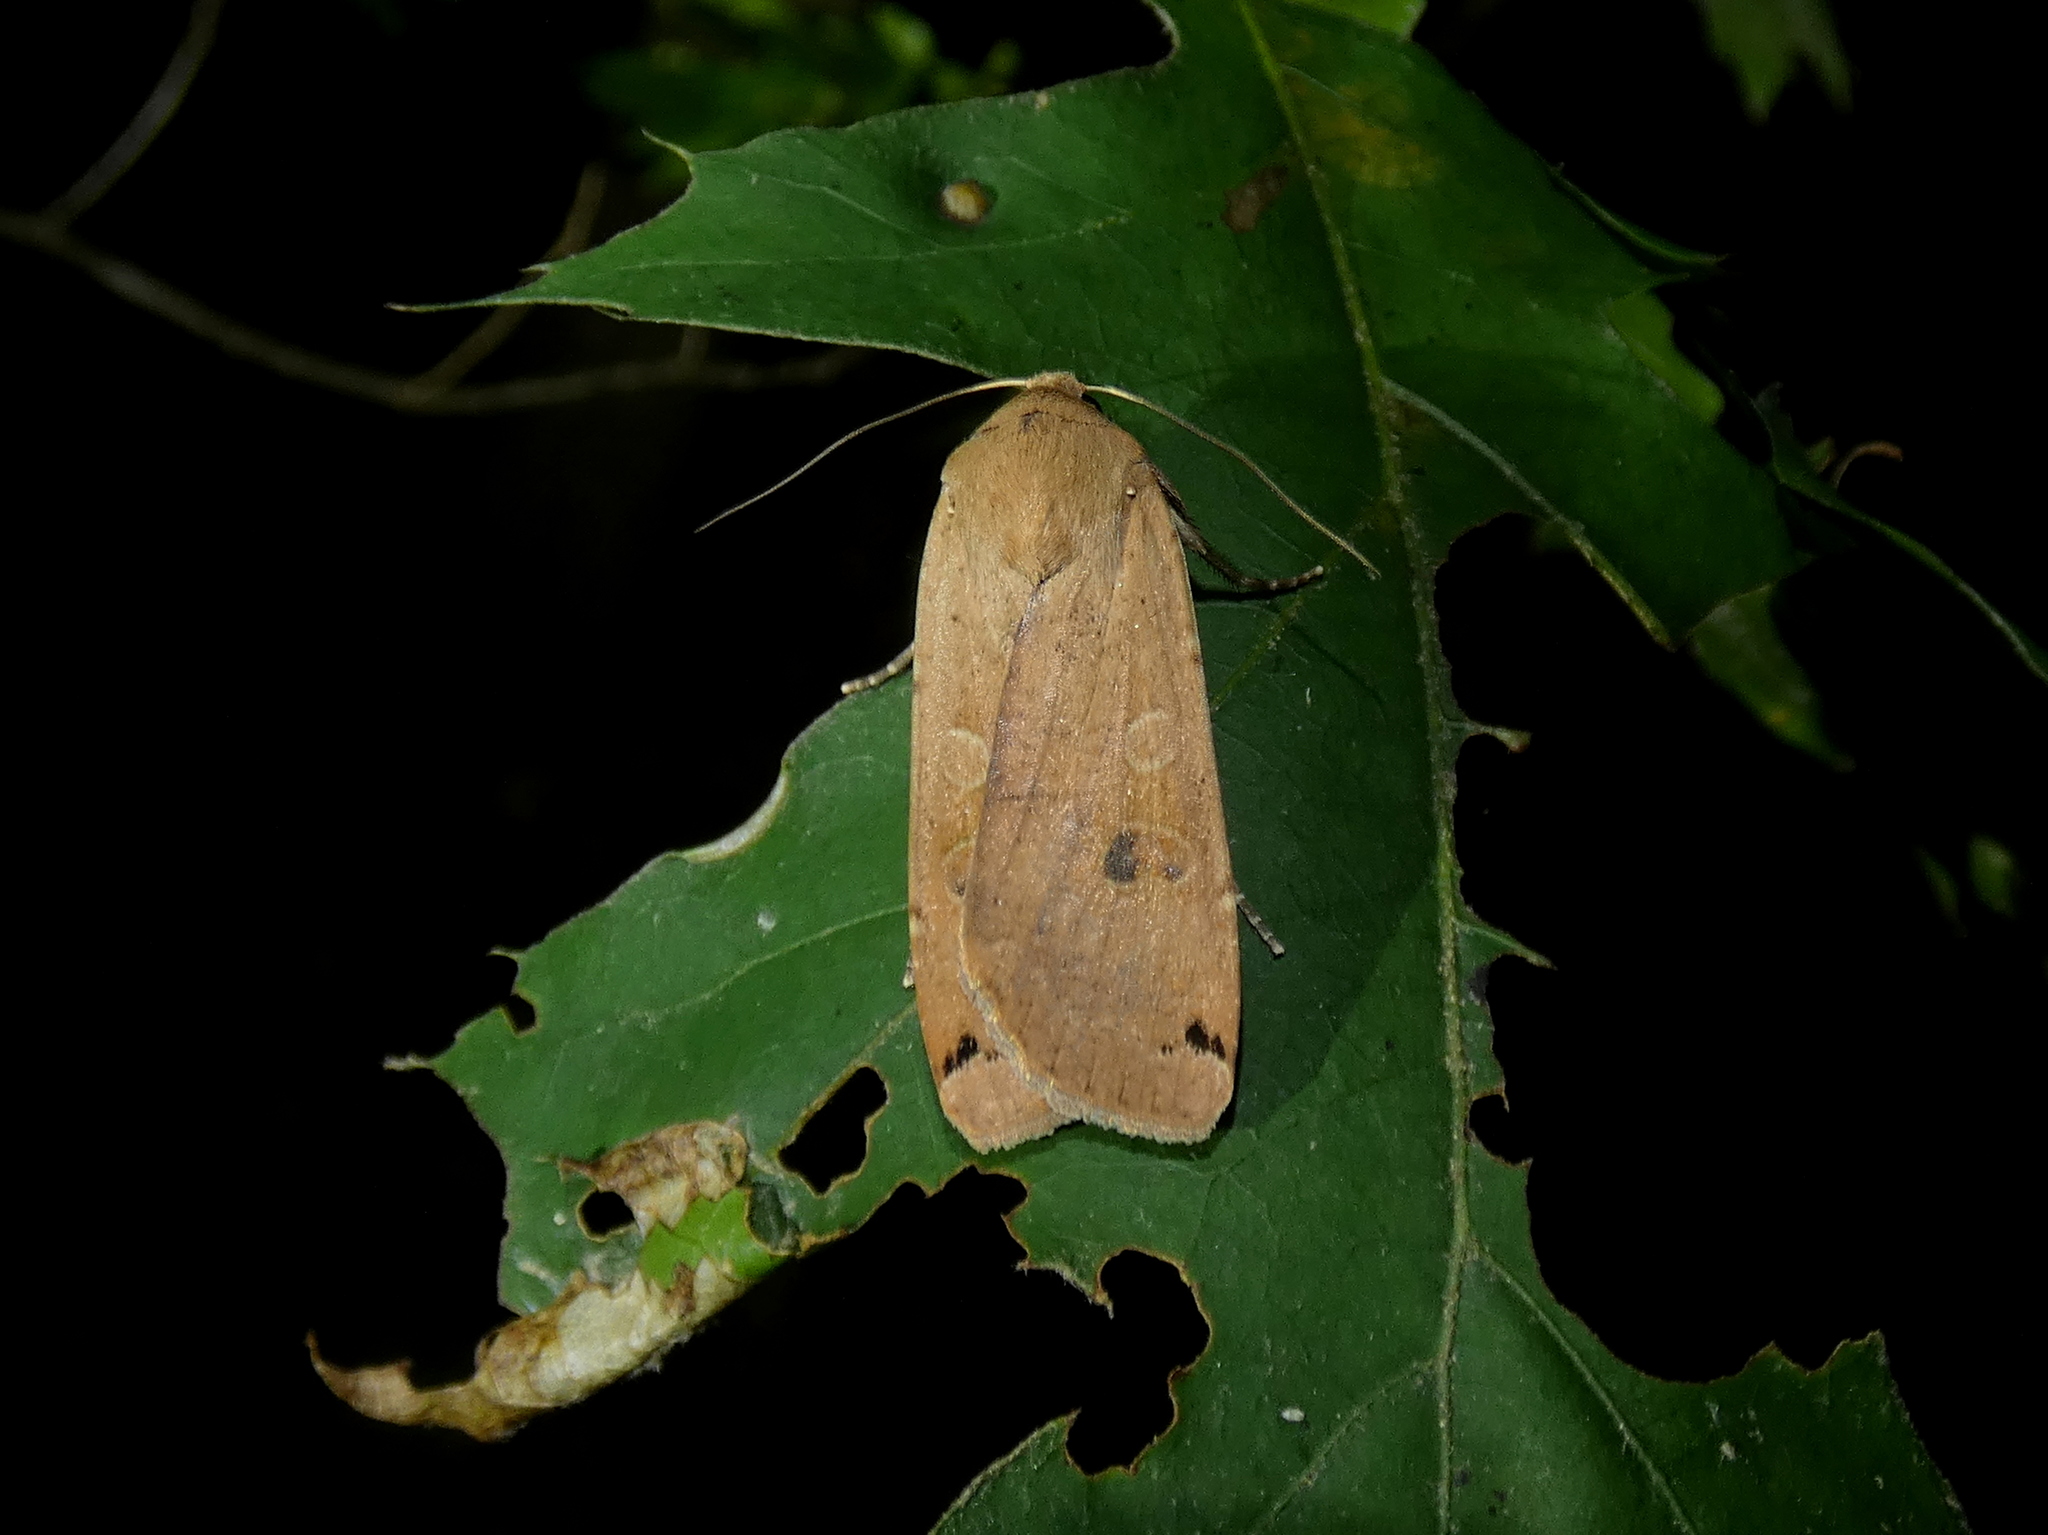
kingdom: Animalia
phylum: Arthropoda
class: Insecta
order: Lepidoptera
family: Noctuidae
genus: Noctua
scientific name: Noctua pronuba
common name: Large yellow underwing
